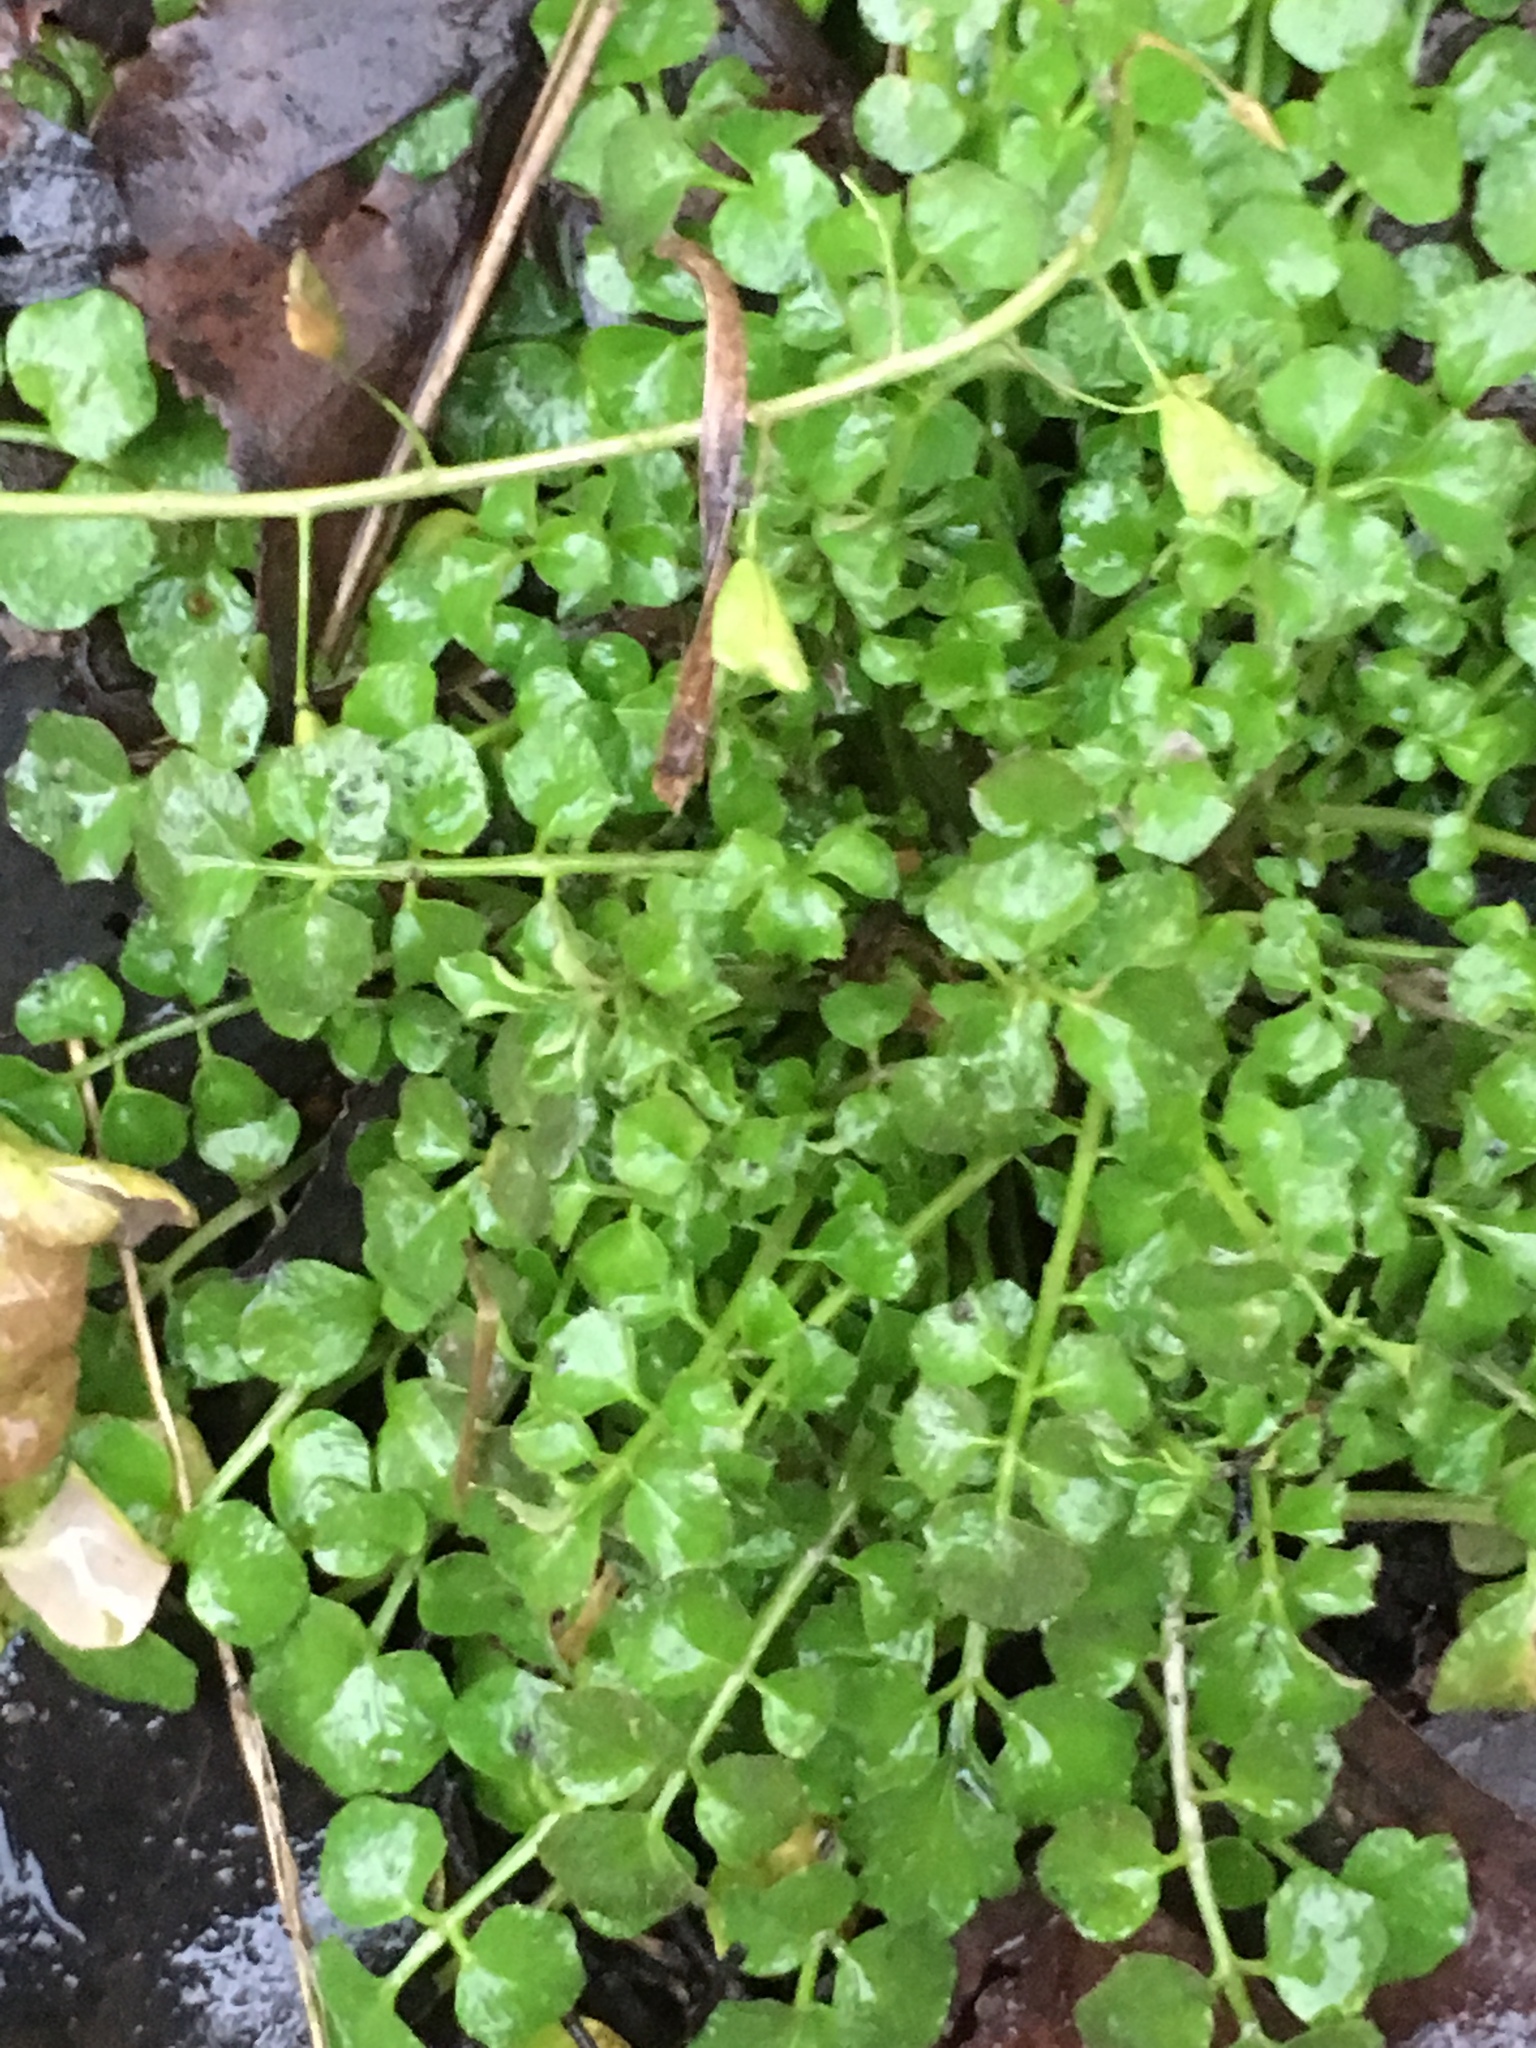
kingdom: Plantae
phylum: Tracheophyta
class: Magnoliopsida
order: Brassicales
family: Brassicaceae
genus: Cardamine
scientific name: Cardamine hirsuta
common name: Hairy bittercress
